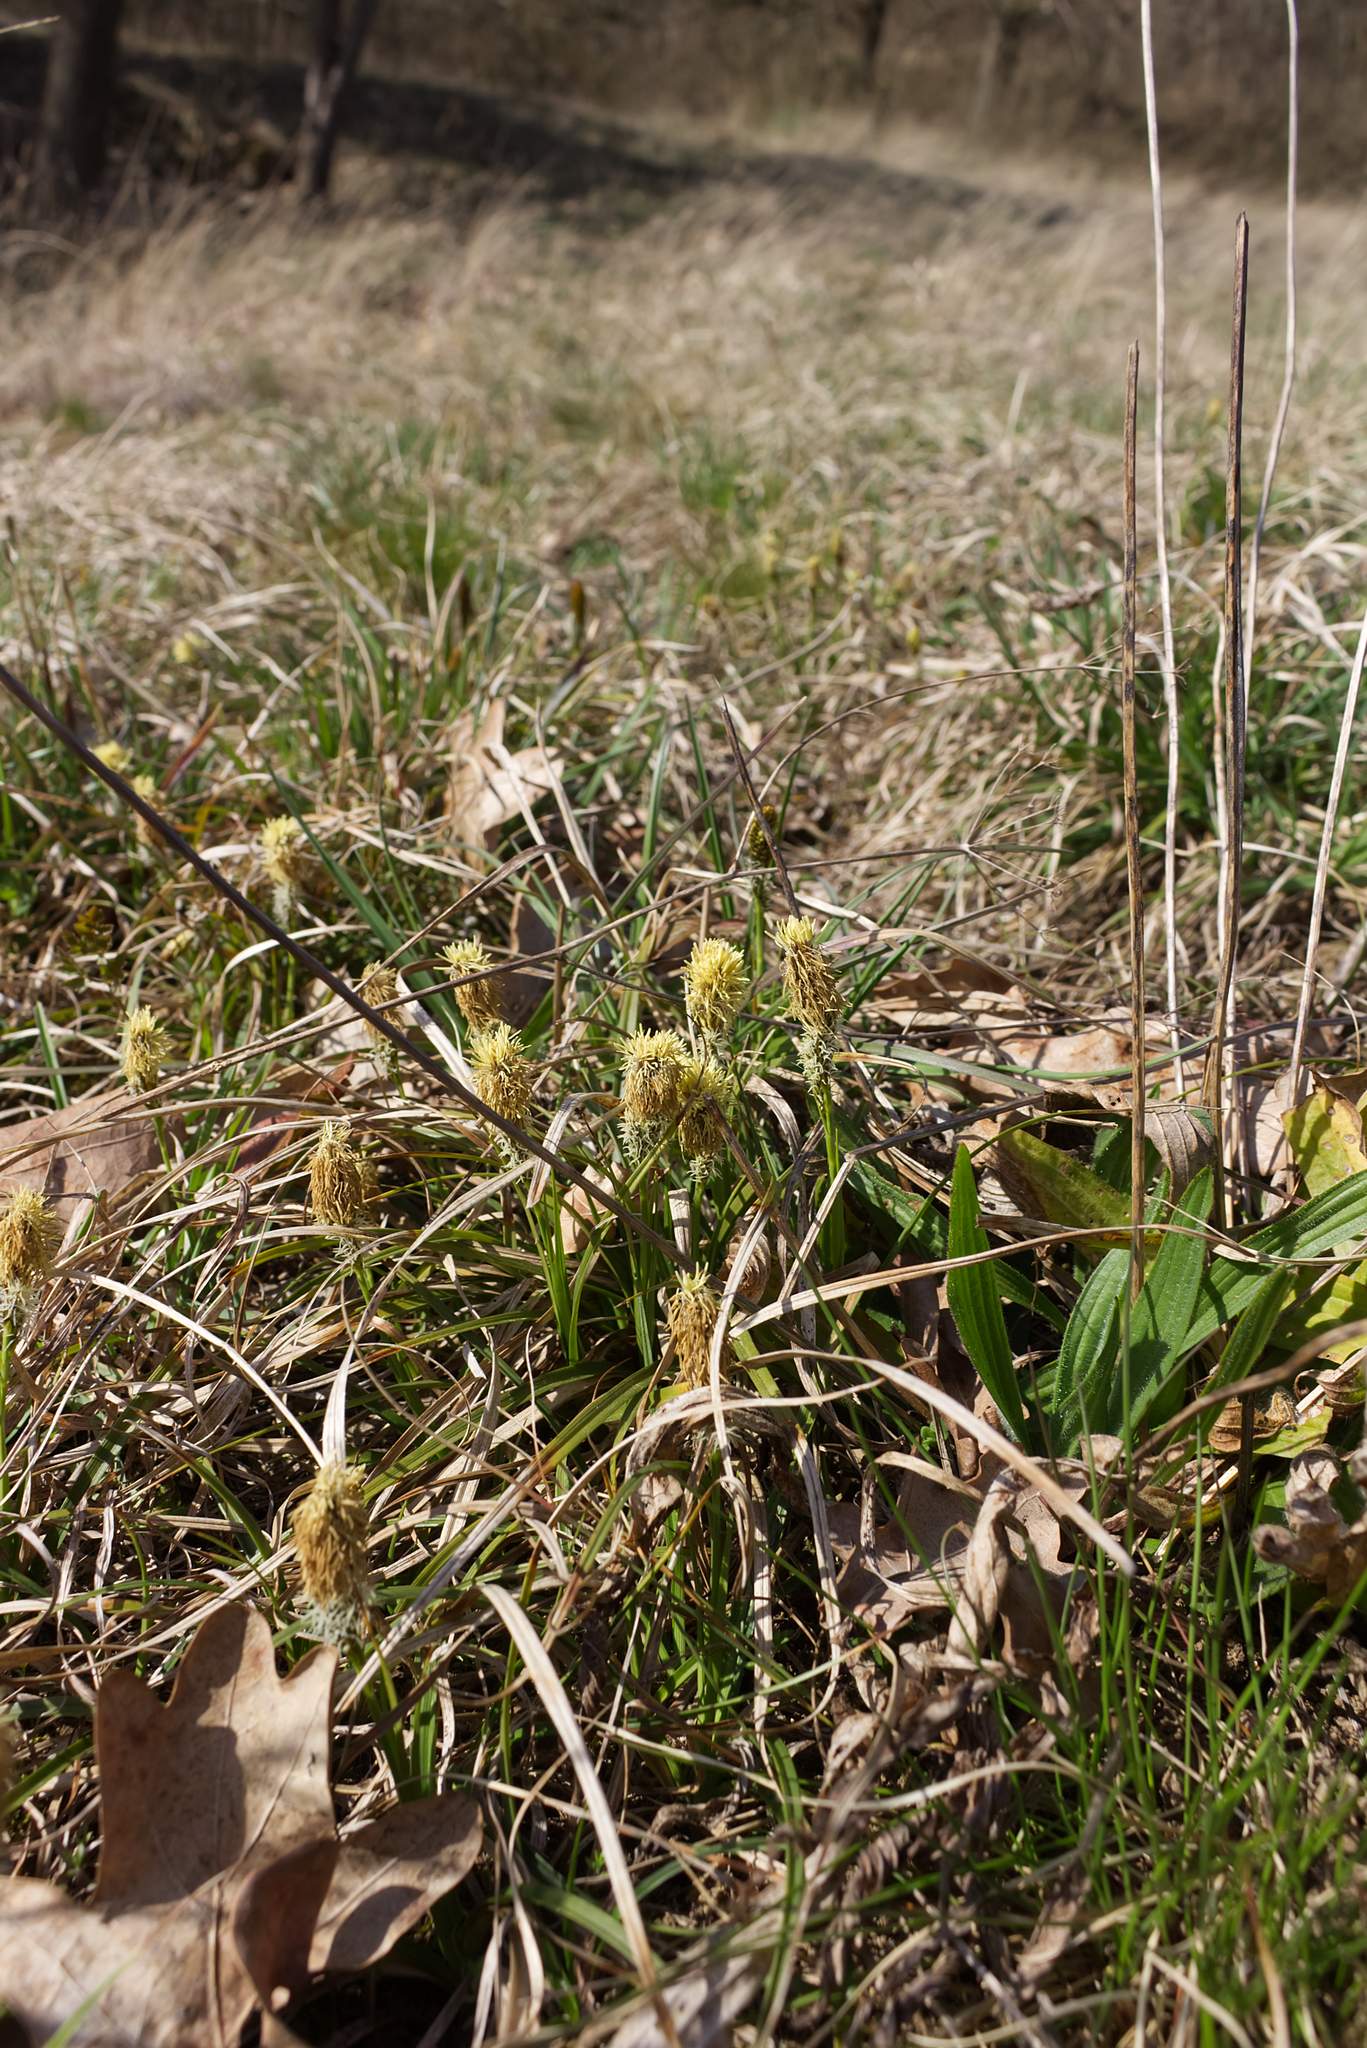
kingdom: Plantae
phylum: Tracheophyta
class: Liliopsida
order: Poales
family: Cyperaceae
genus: Carex
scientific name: Carex caryophyllea
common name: Spring sedge
